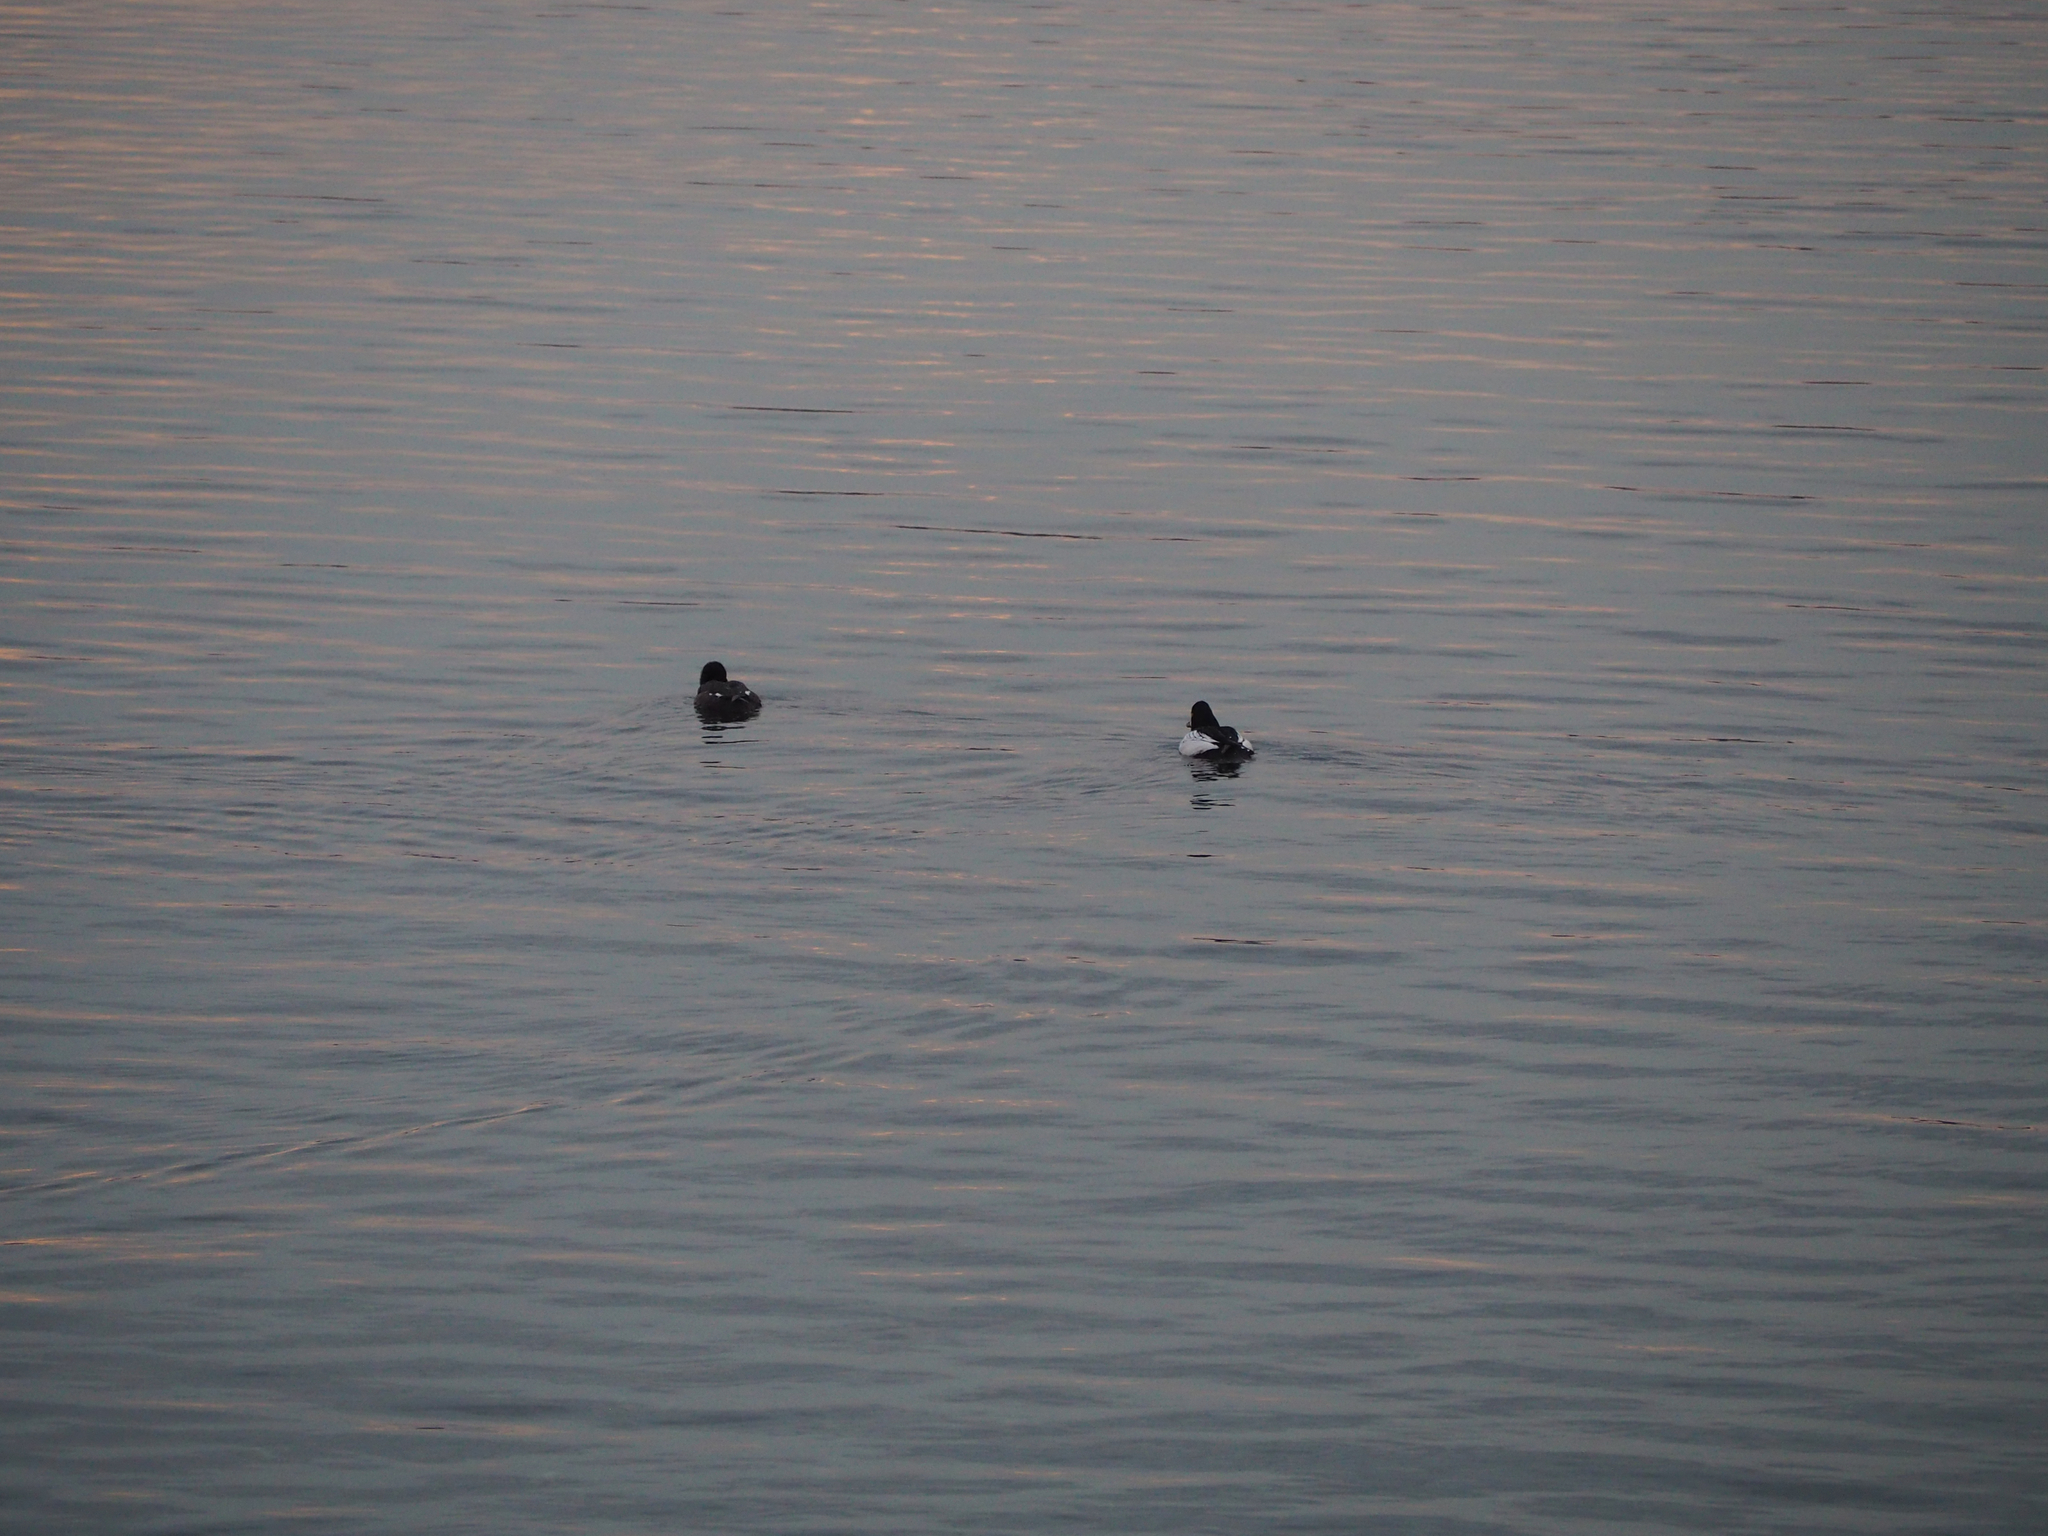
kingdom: Animalia
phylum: Chordata
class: Aves
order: Anseriformes
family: Anatidae
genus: Bucephala
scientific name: Bucephala clangula
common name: Common goldeneye
